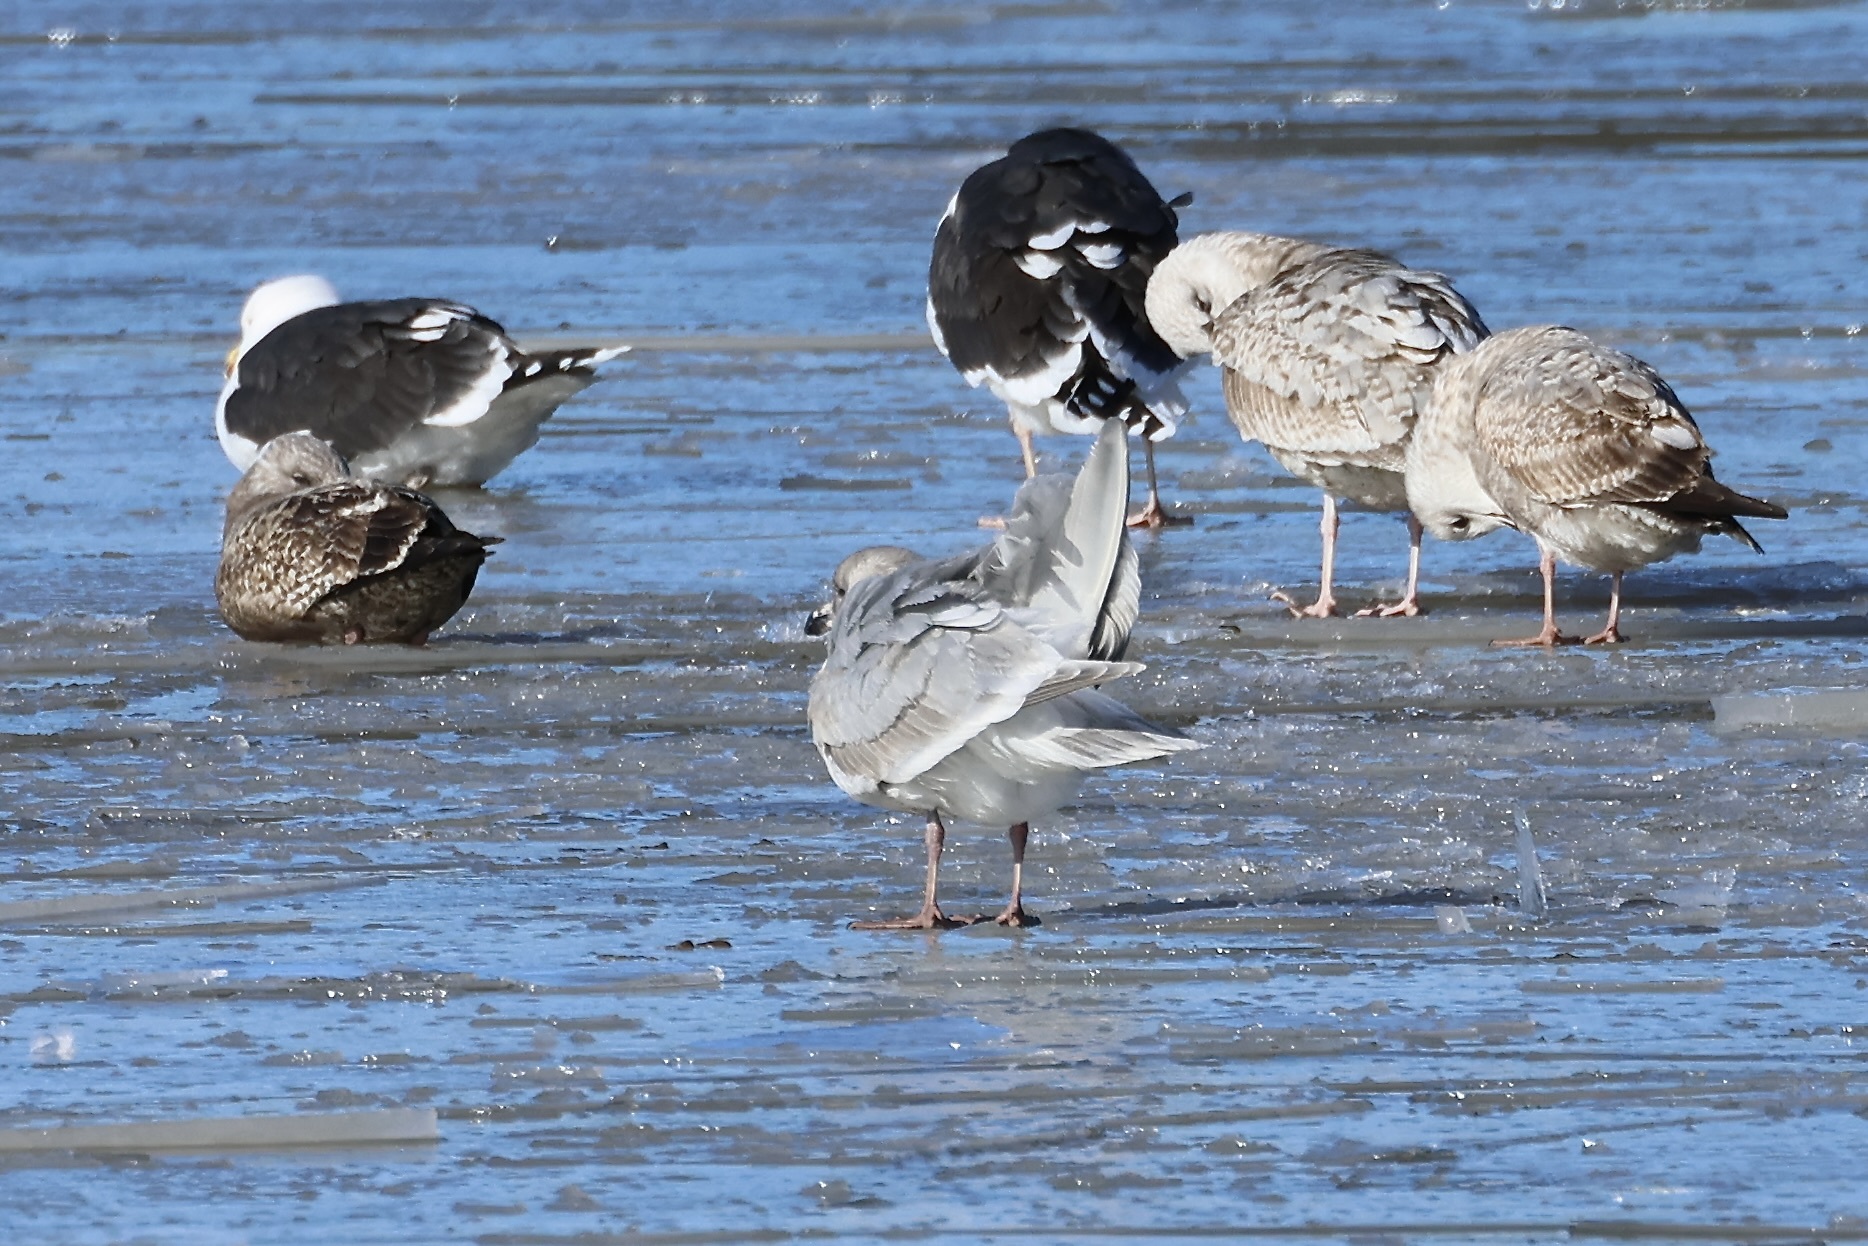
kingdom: Animalia
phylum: Chordata
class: Aves
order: Charadriiformes
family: Laridae
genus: Larus
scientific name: Larus glaucescens
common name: Glaucous-winged gull
